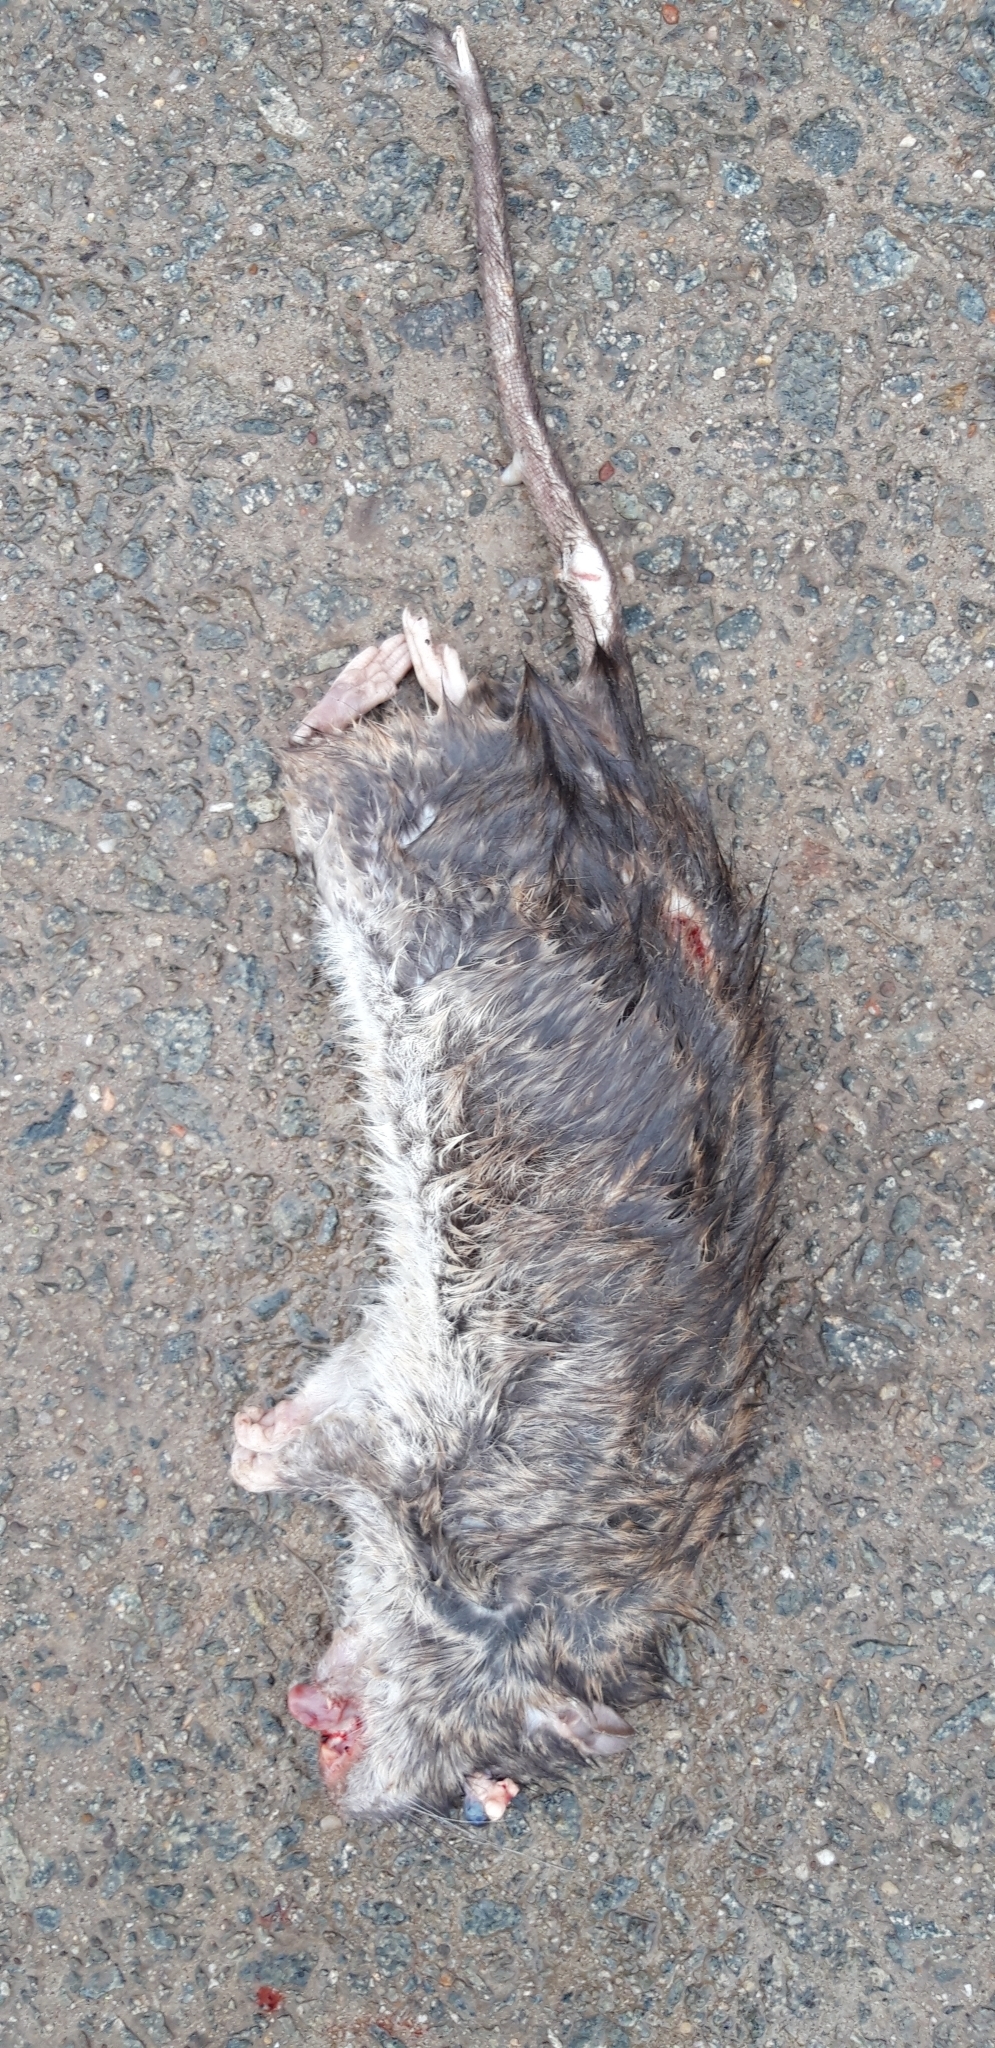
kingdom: Animalia
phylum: Chordata
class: Mammalia
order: Rodentia
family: Muridae
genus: Rattus
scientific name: Rattus norvegicus
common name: Brown rat
